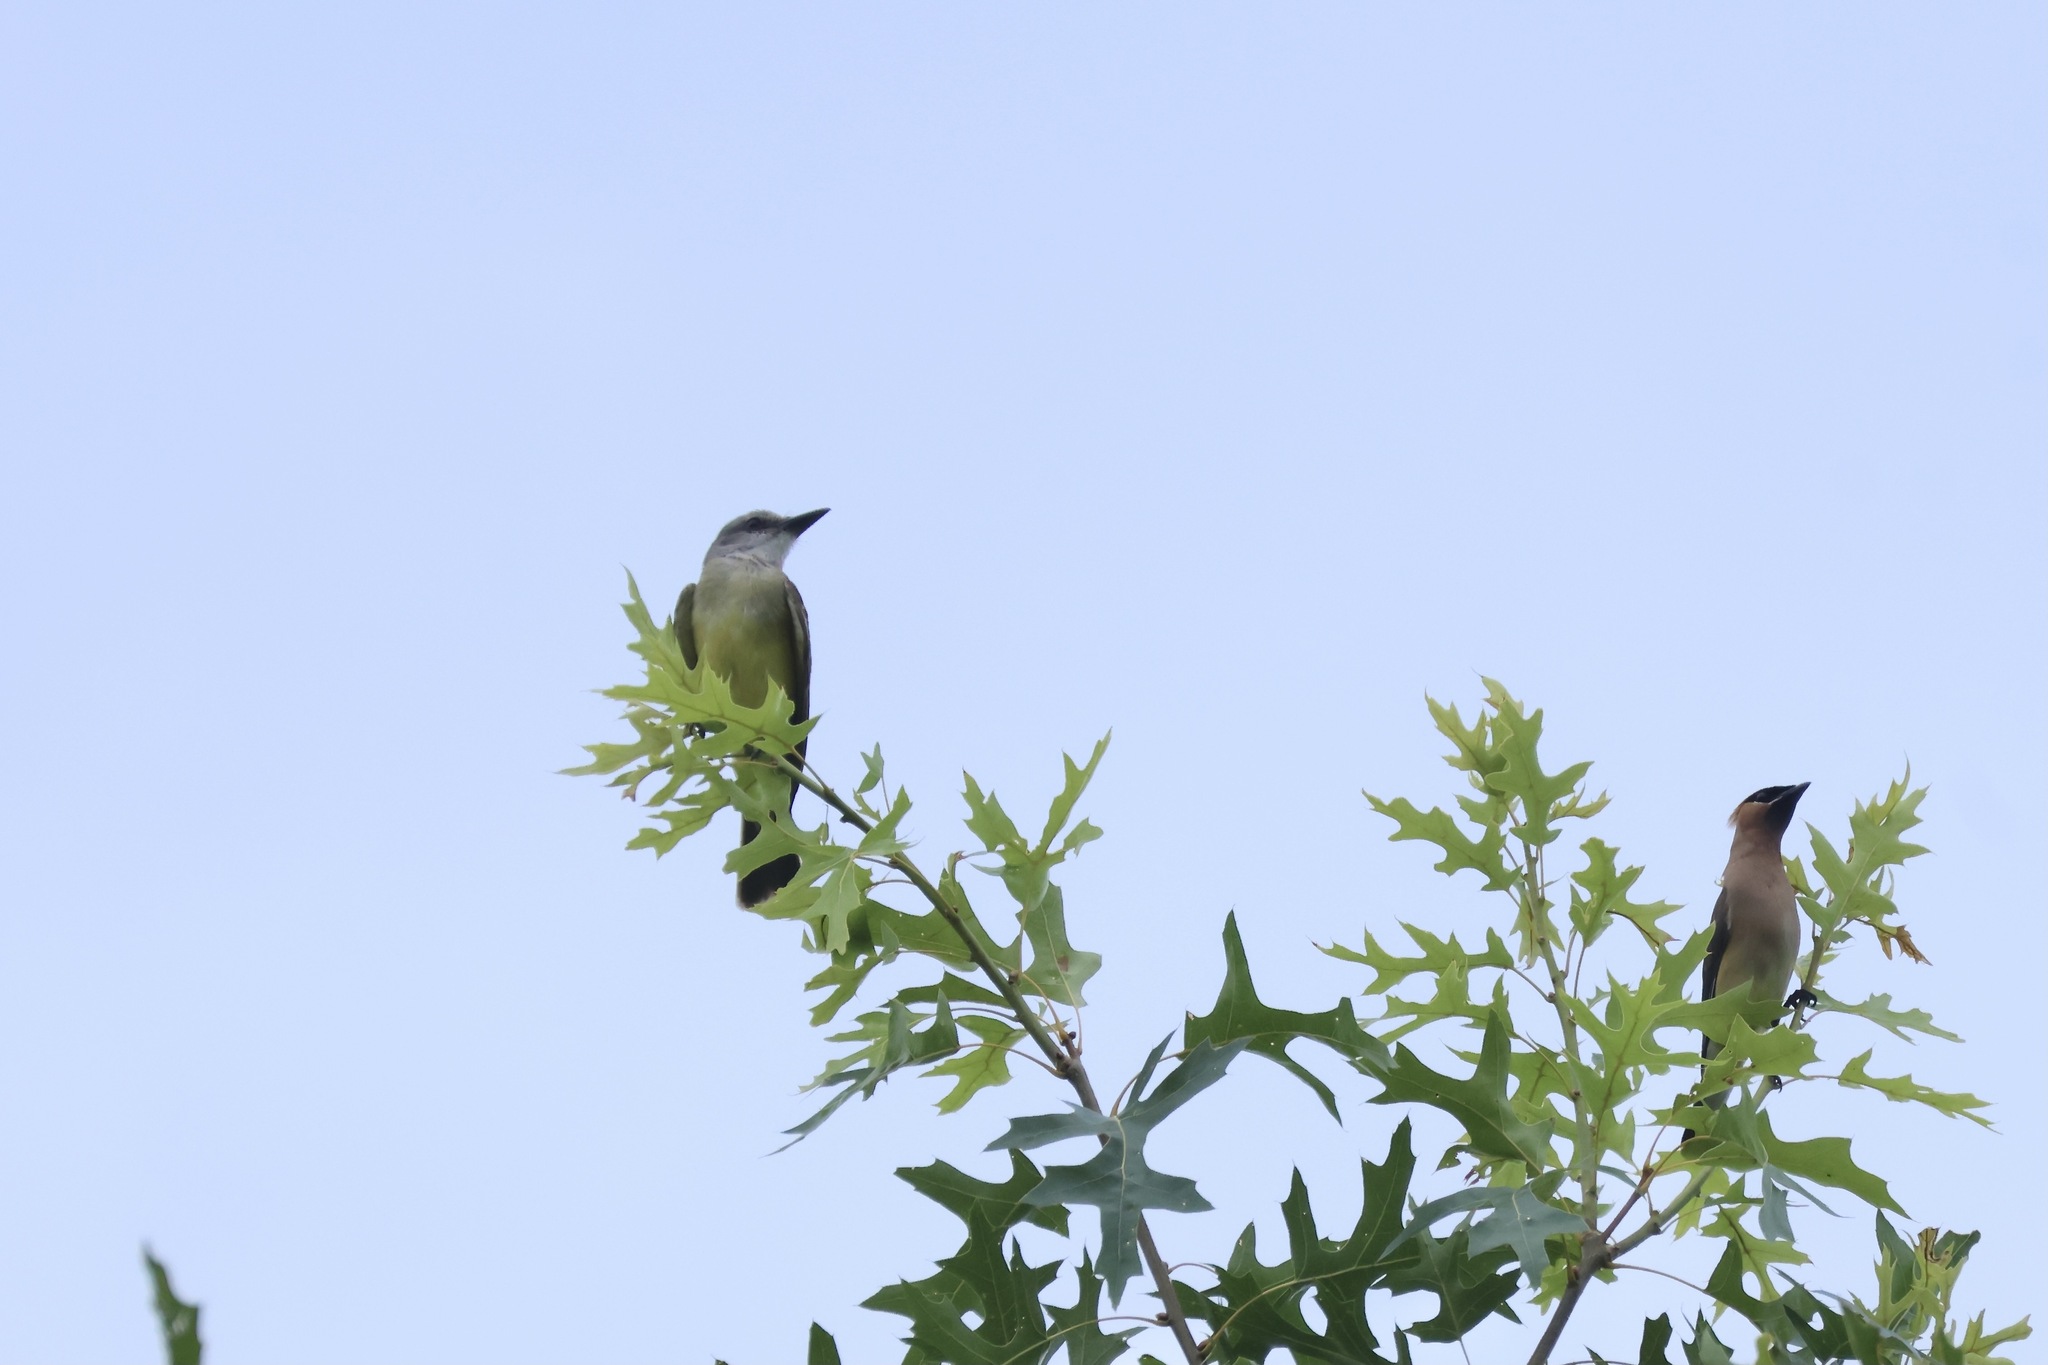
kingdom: Animalia
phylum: Chordata
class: Aves
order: Passeriformes
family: Tyrannidae
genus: Tyrannus
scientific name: Tyrannus melancholicus
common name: Tropical kingbird
